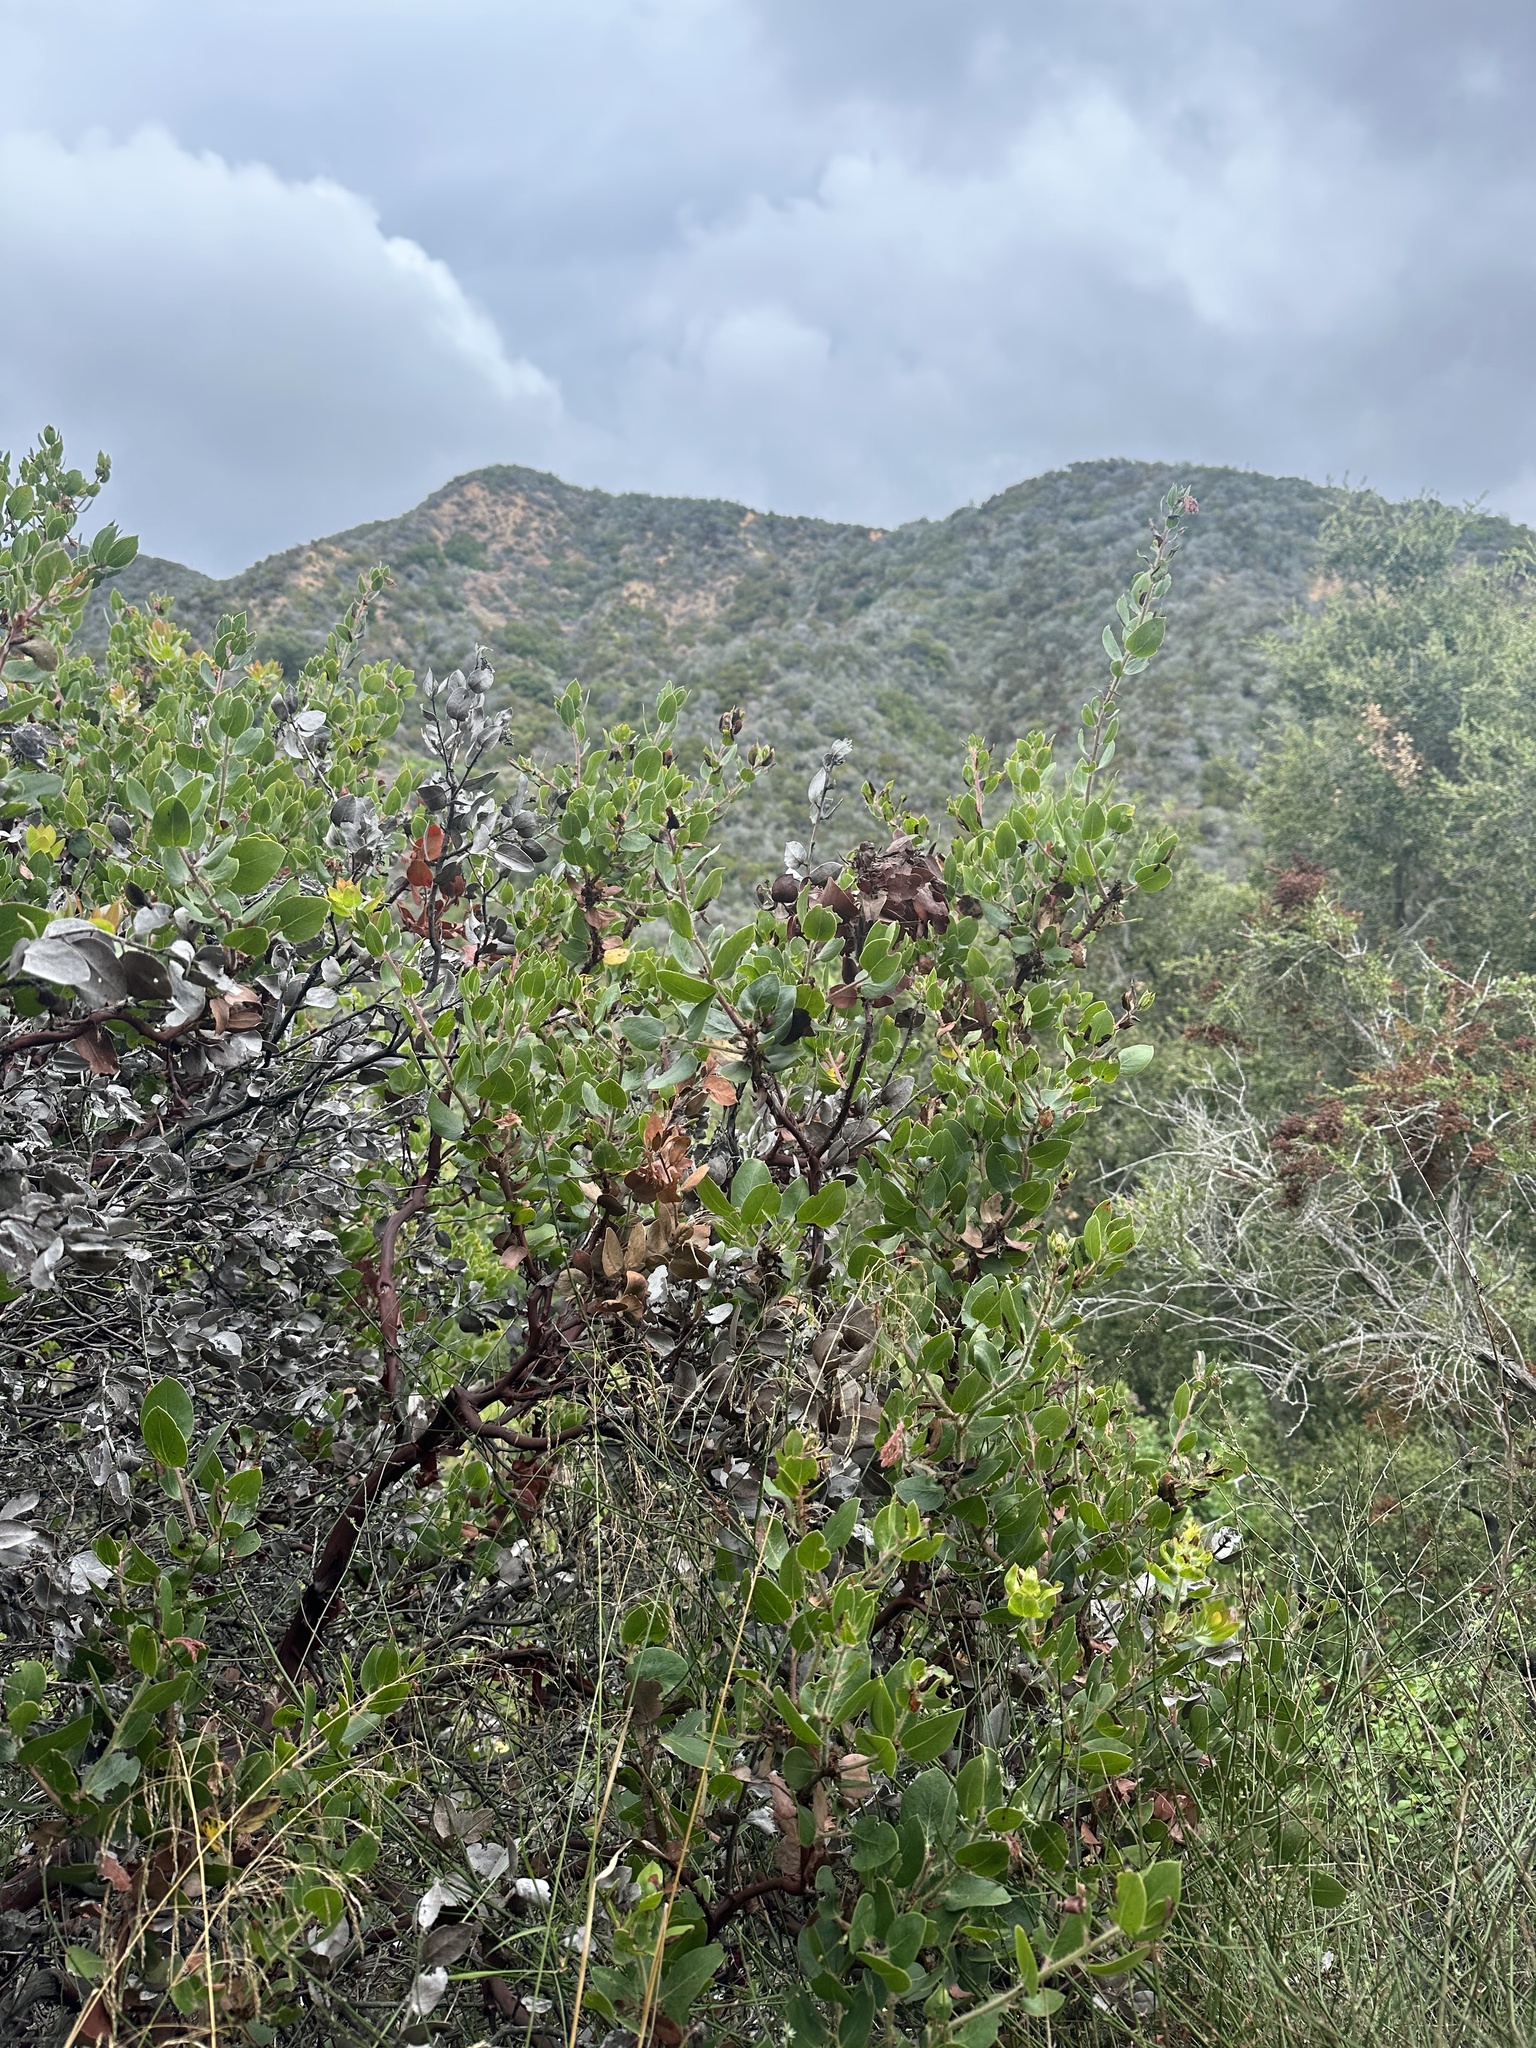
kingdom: Plantae
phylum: Tracheophyta
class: Magnoliopsida
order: Ericales
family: Ericaceae
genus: Arctostaphylos
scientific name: Arctostaphylos glandulosa
